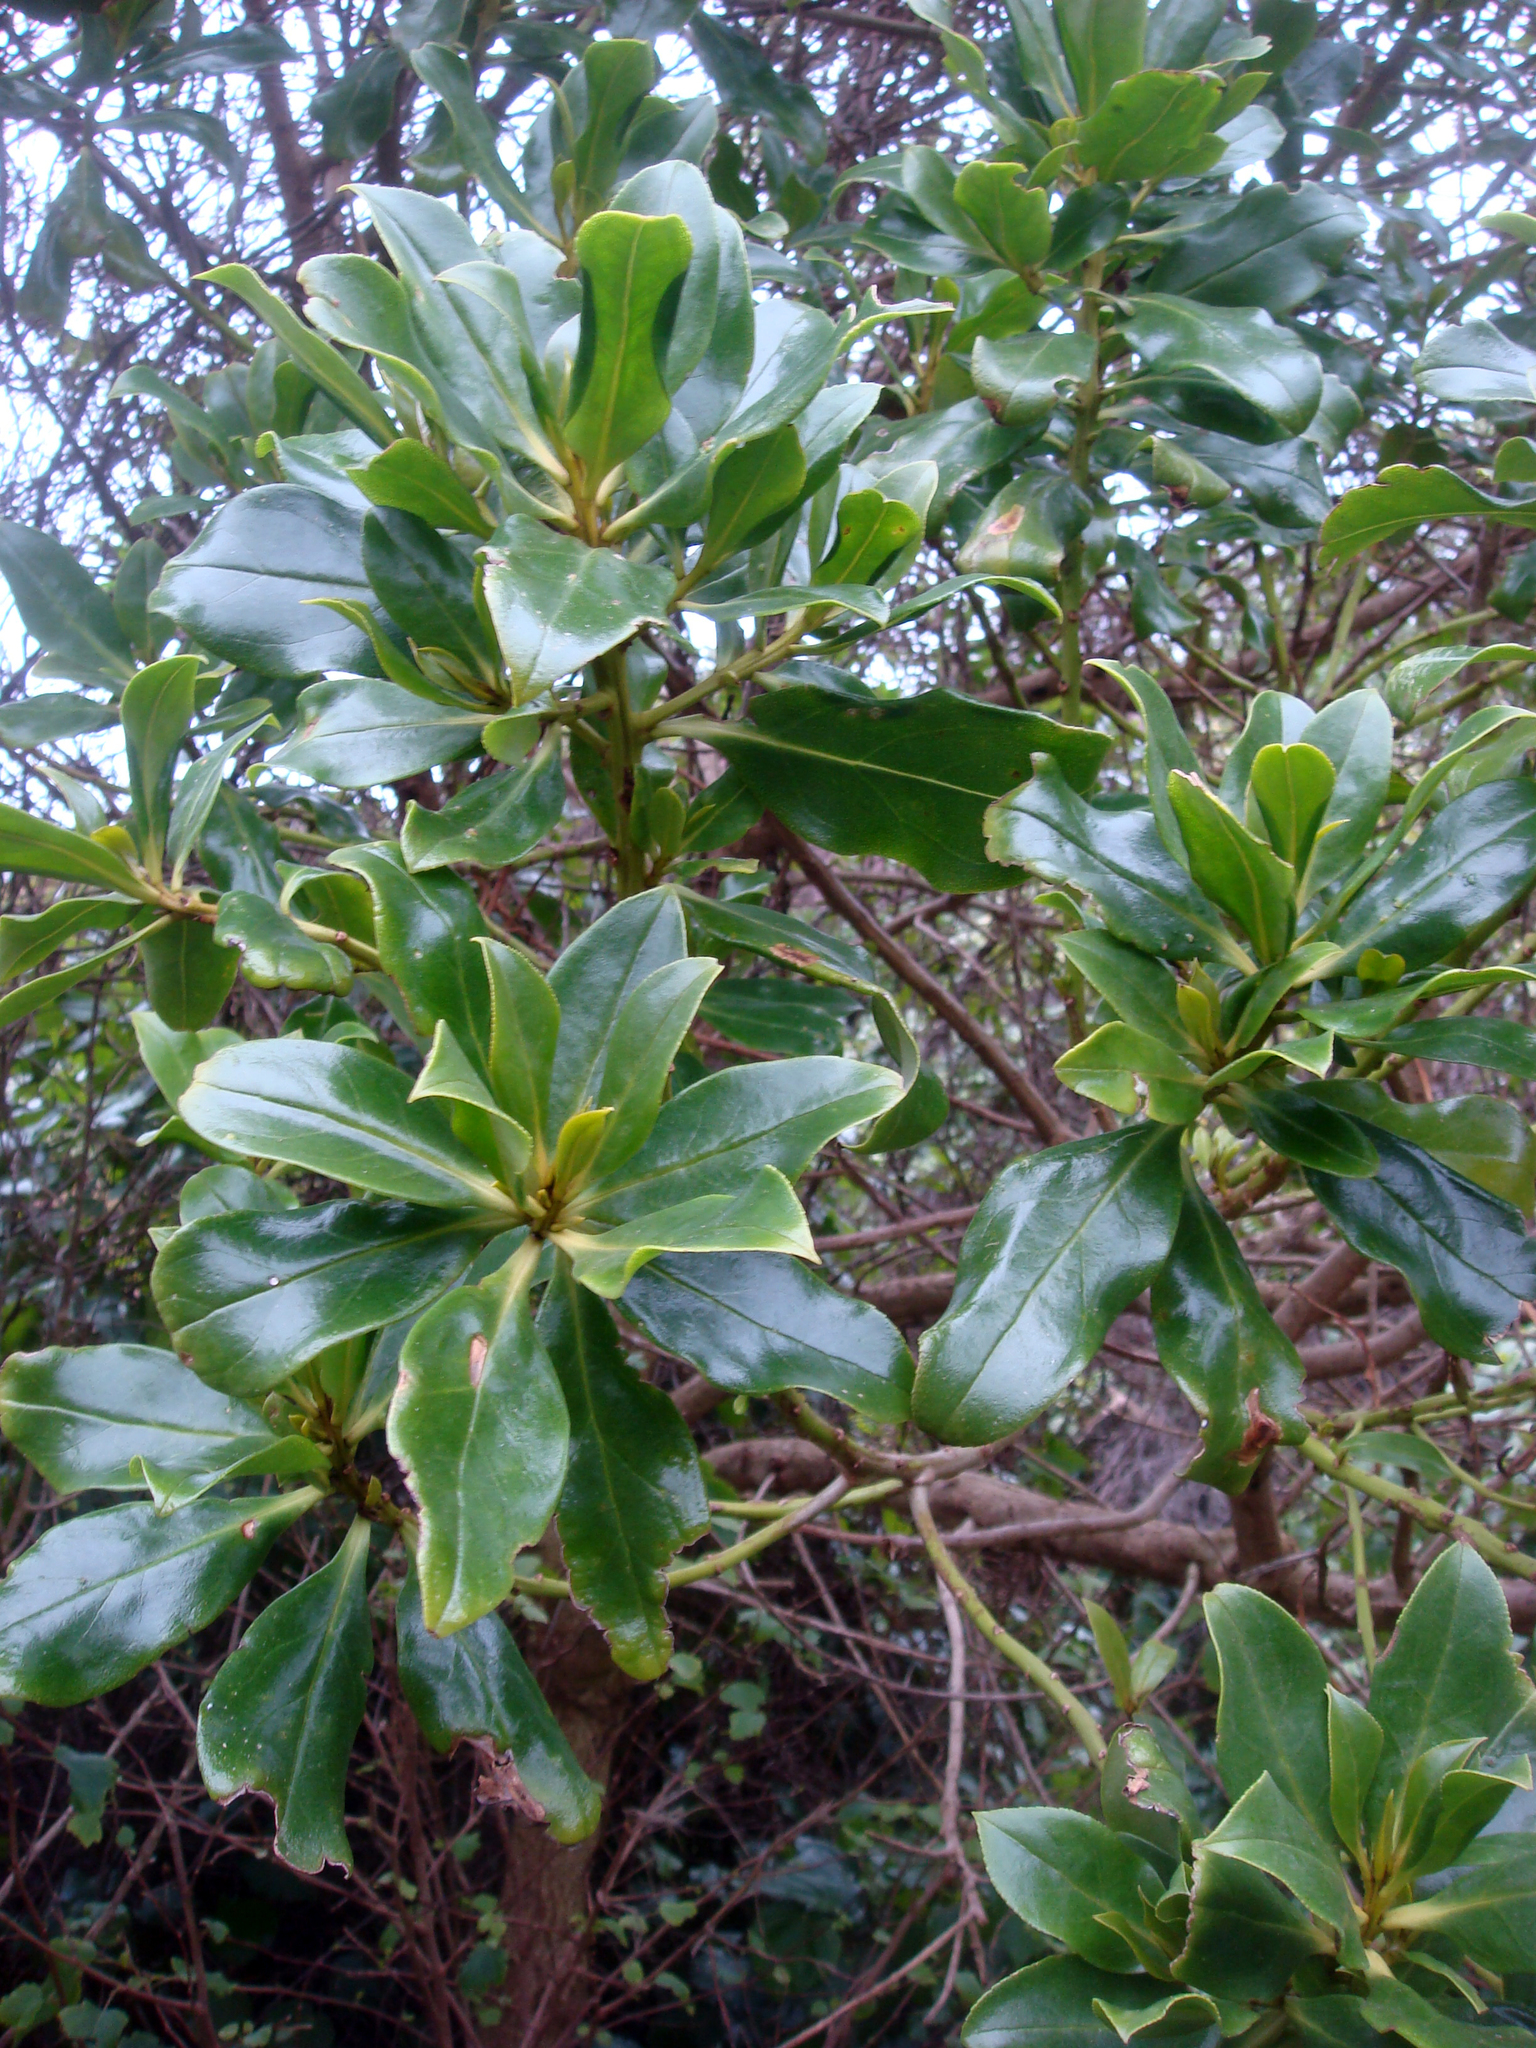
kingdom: Plantae
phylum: Tracheophyta
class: Magnoliopsida
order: Lamiales
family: Scrophulariaceae
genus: Myoporum
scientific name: Myoporum semotum
